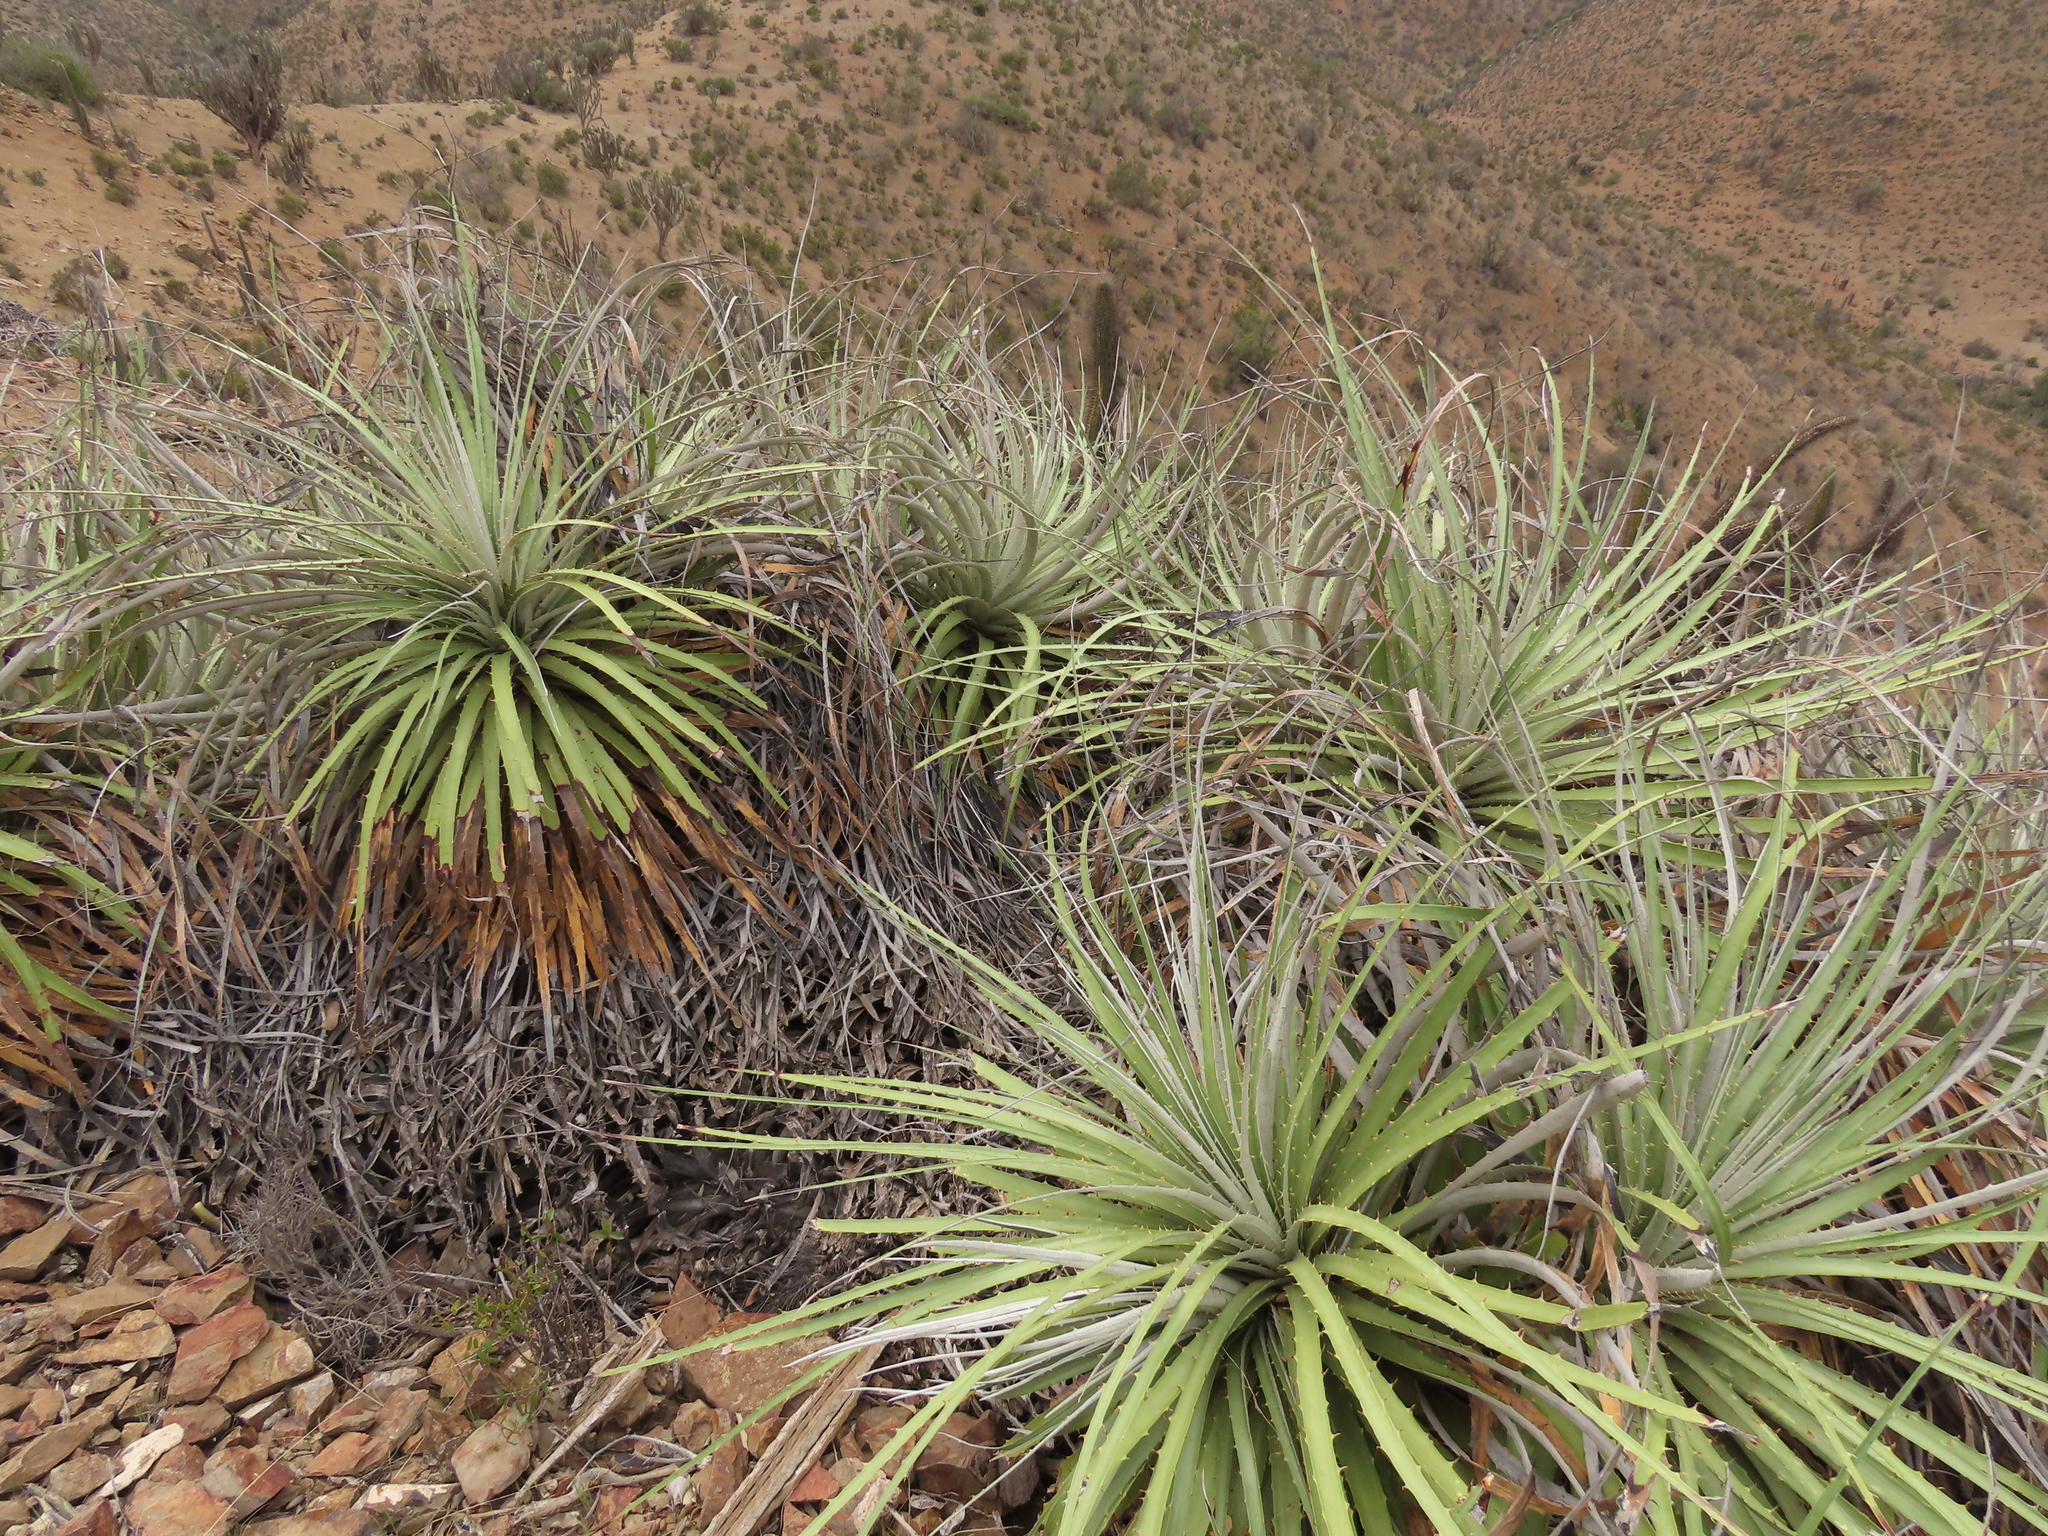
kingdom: Plantae
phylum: Tracheophyta
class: Liliopsida
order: Poales
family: Bromeliaceae
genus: Puya
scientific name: Puya alpestris
